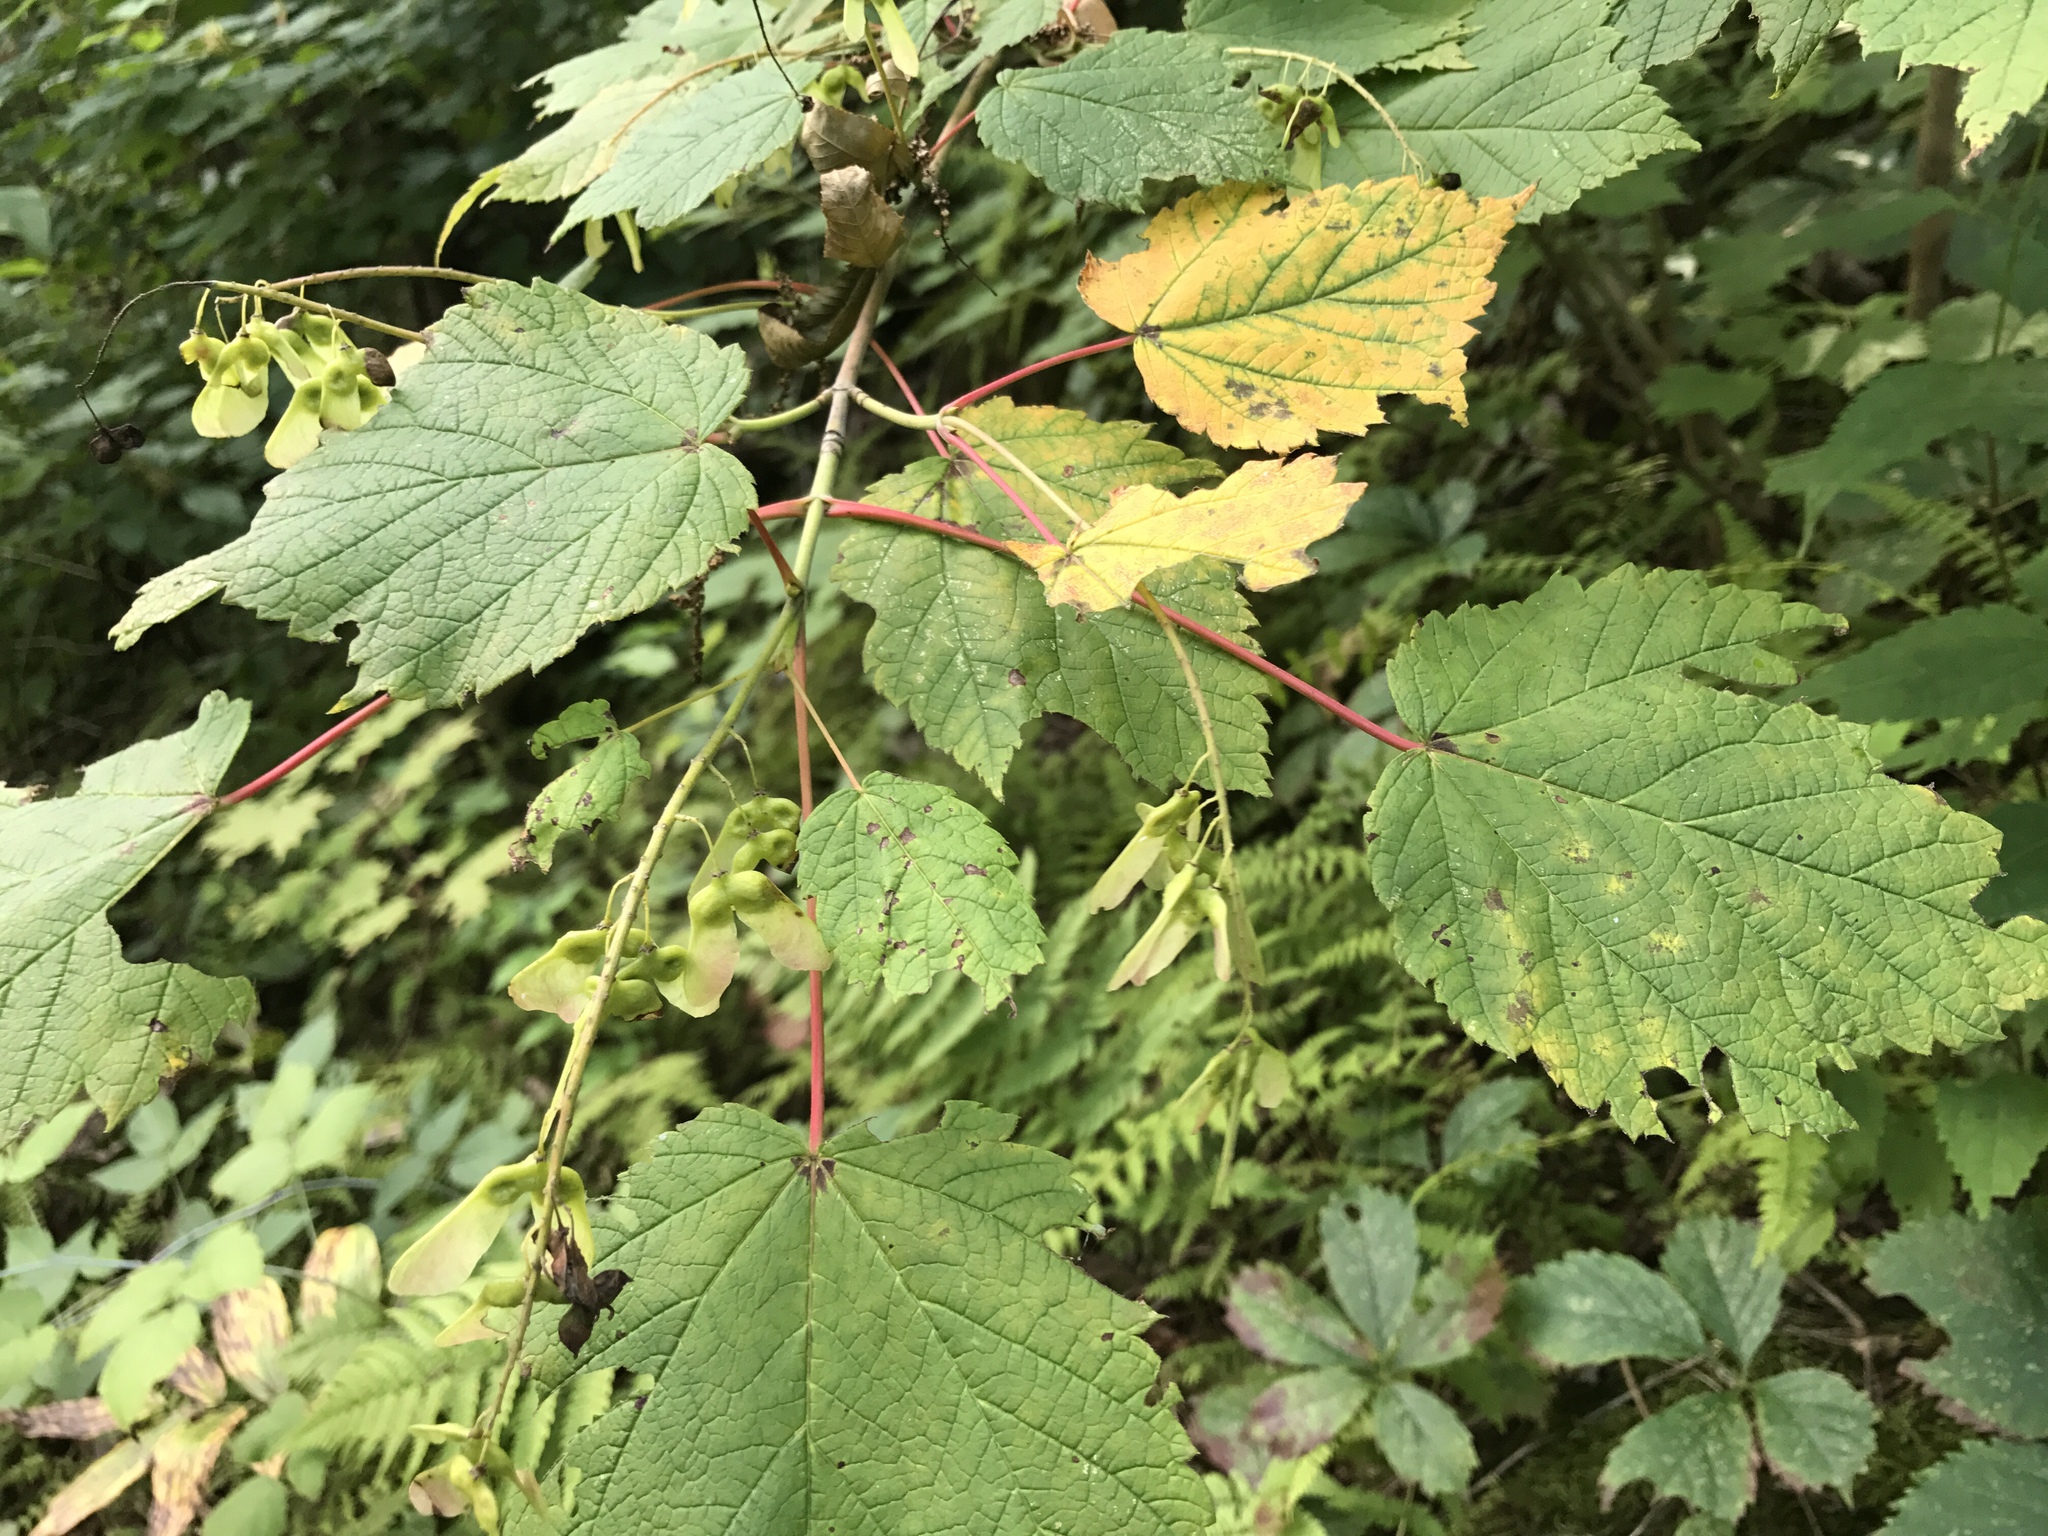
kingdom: Plantae
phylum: Tracheophyta
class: Magnoliopsida
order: Sapindales
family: Sapindaceae
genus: Acer
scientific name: Acer spicatum
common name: Mountain maple
